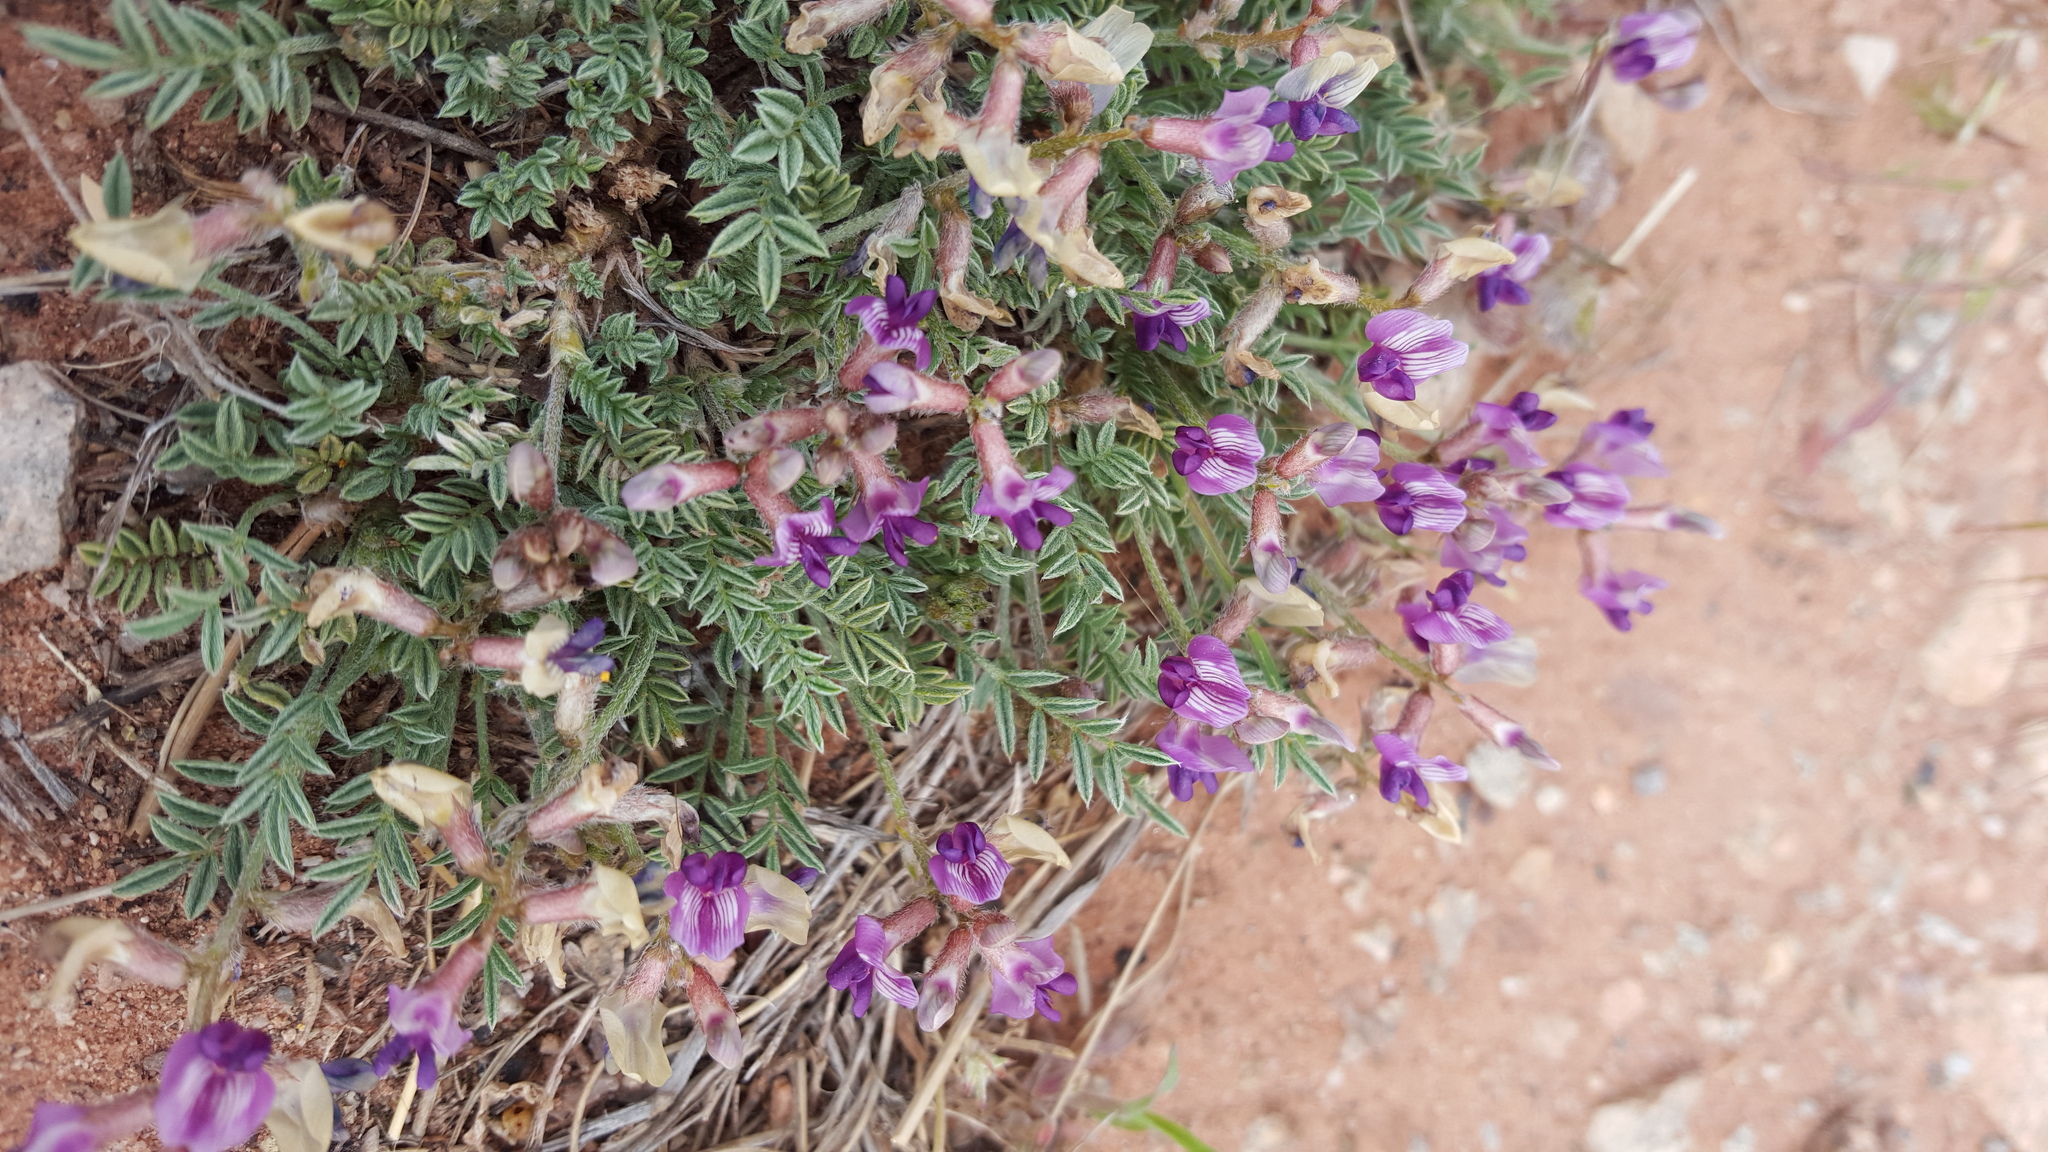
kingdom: Plantae
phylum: Tracheophyta
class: Magnoliopsida
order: Fabales
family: Fabaceae
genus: Astragalus
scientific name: Astragalus desperatus
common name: Rimrock milk-vetch
